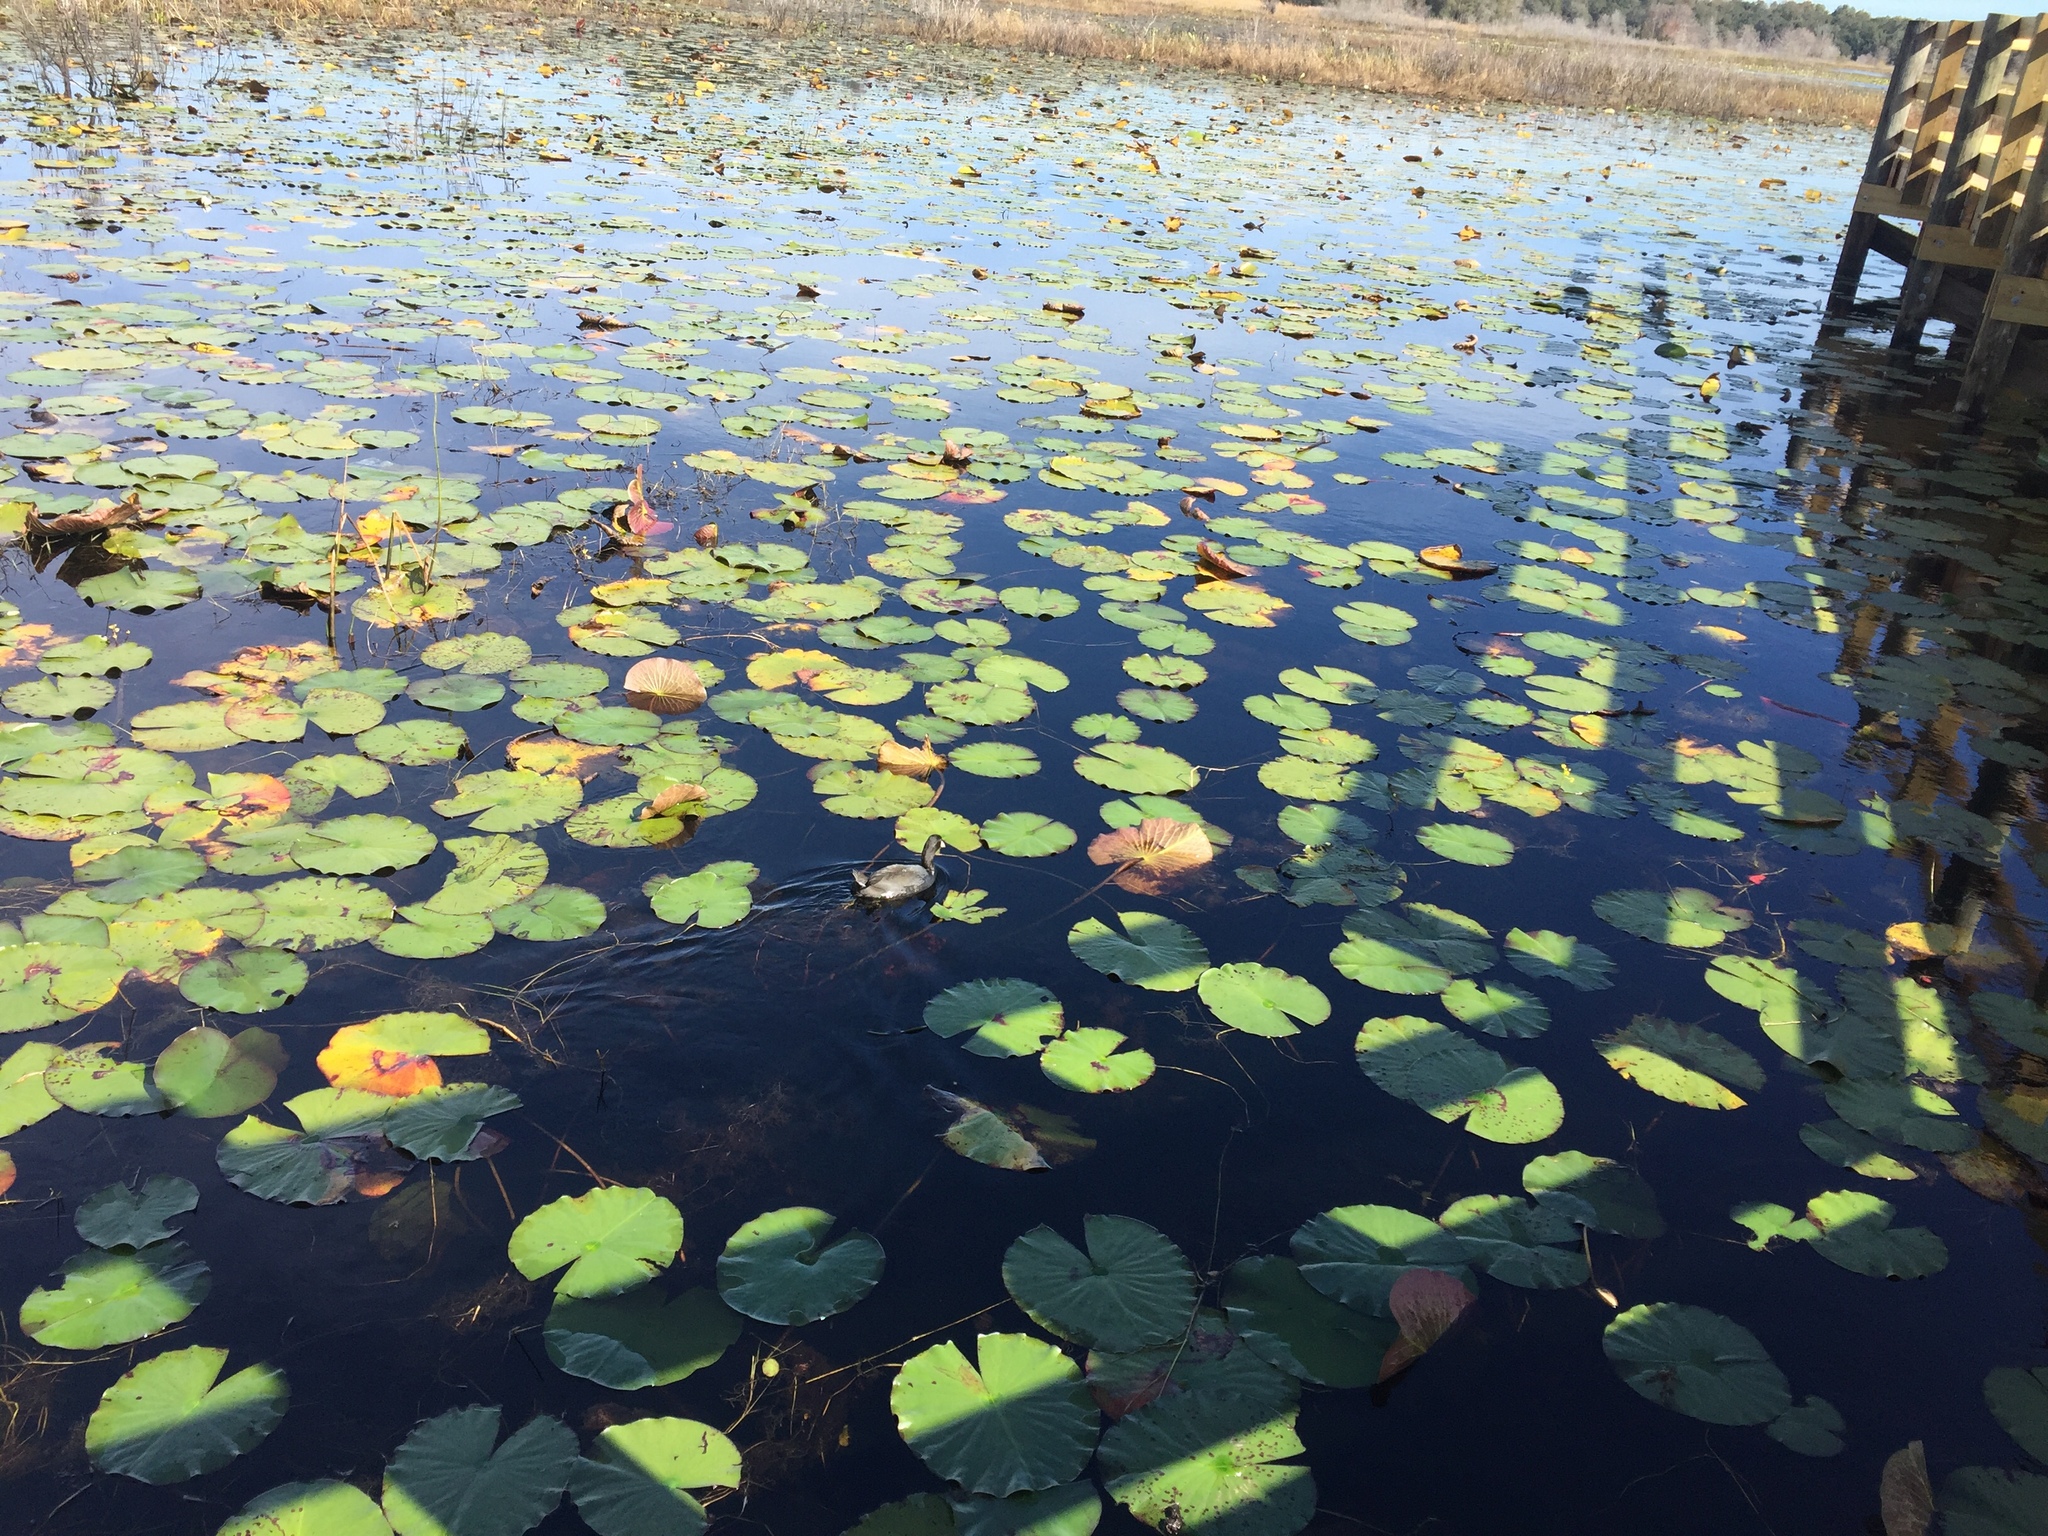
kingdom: Animalia
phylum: Chordata
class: Aves
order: Gruiformes
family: Rallidae
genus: Fulica
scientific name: Fulica americana
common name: American coot
